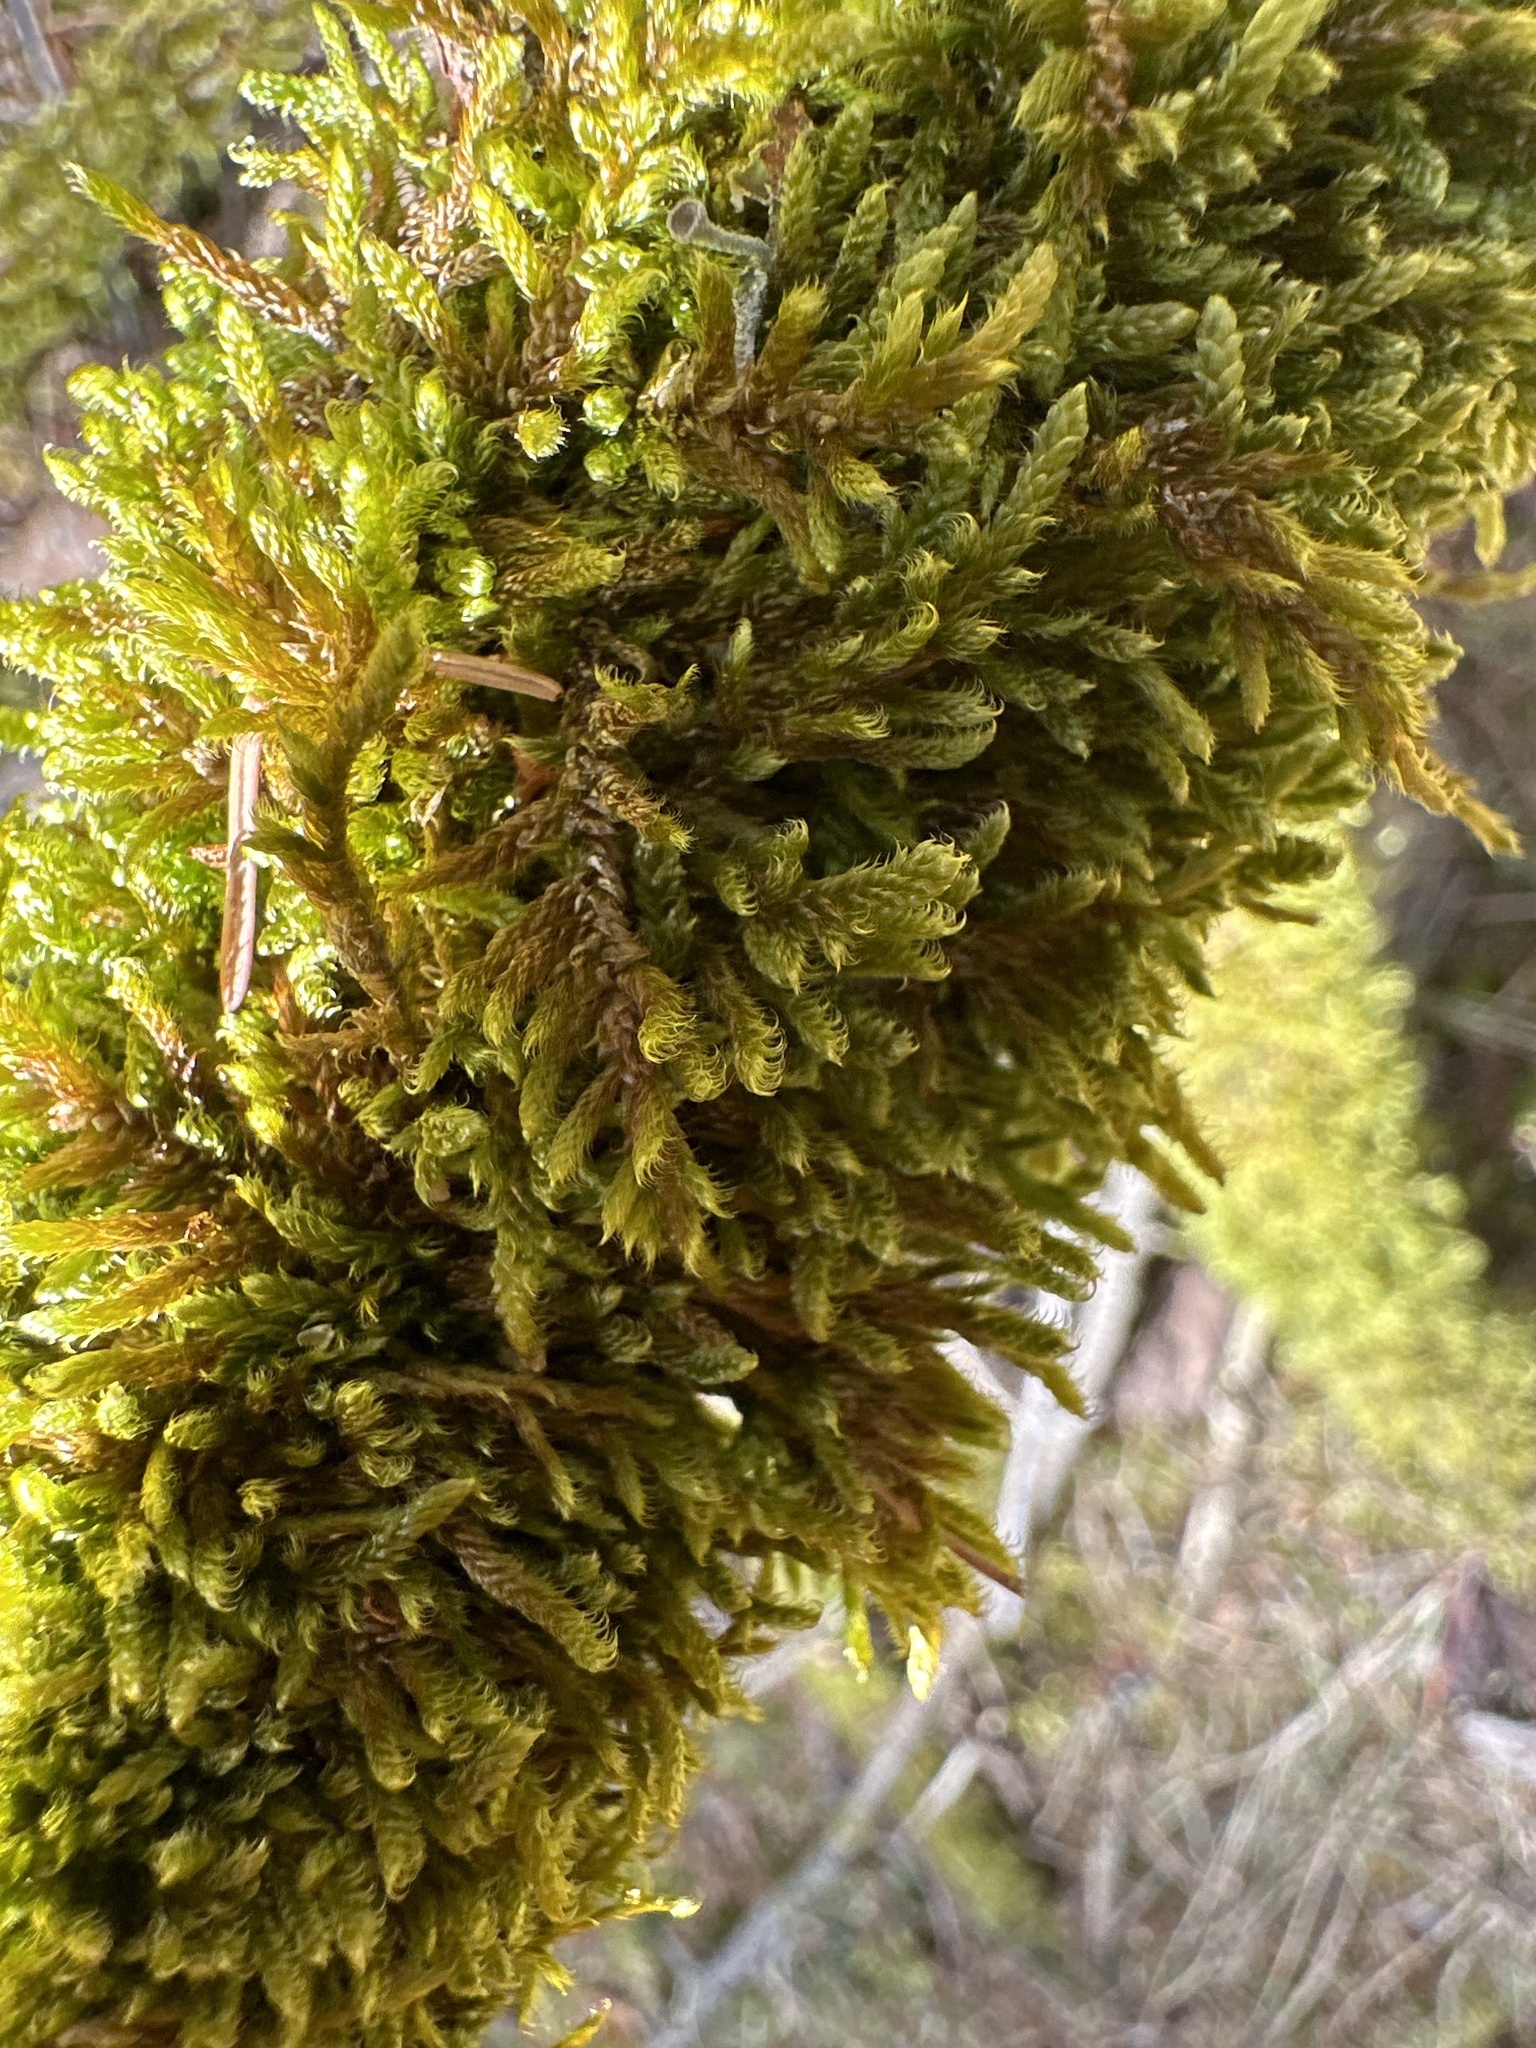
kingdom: Plantae
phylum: Bryophyta
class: Bryopsida
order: Hypnales
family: Hypnaceae
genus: Hypnum
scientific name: Hypnum cupressiforme
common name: Cypress-leaved plait-moss
